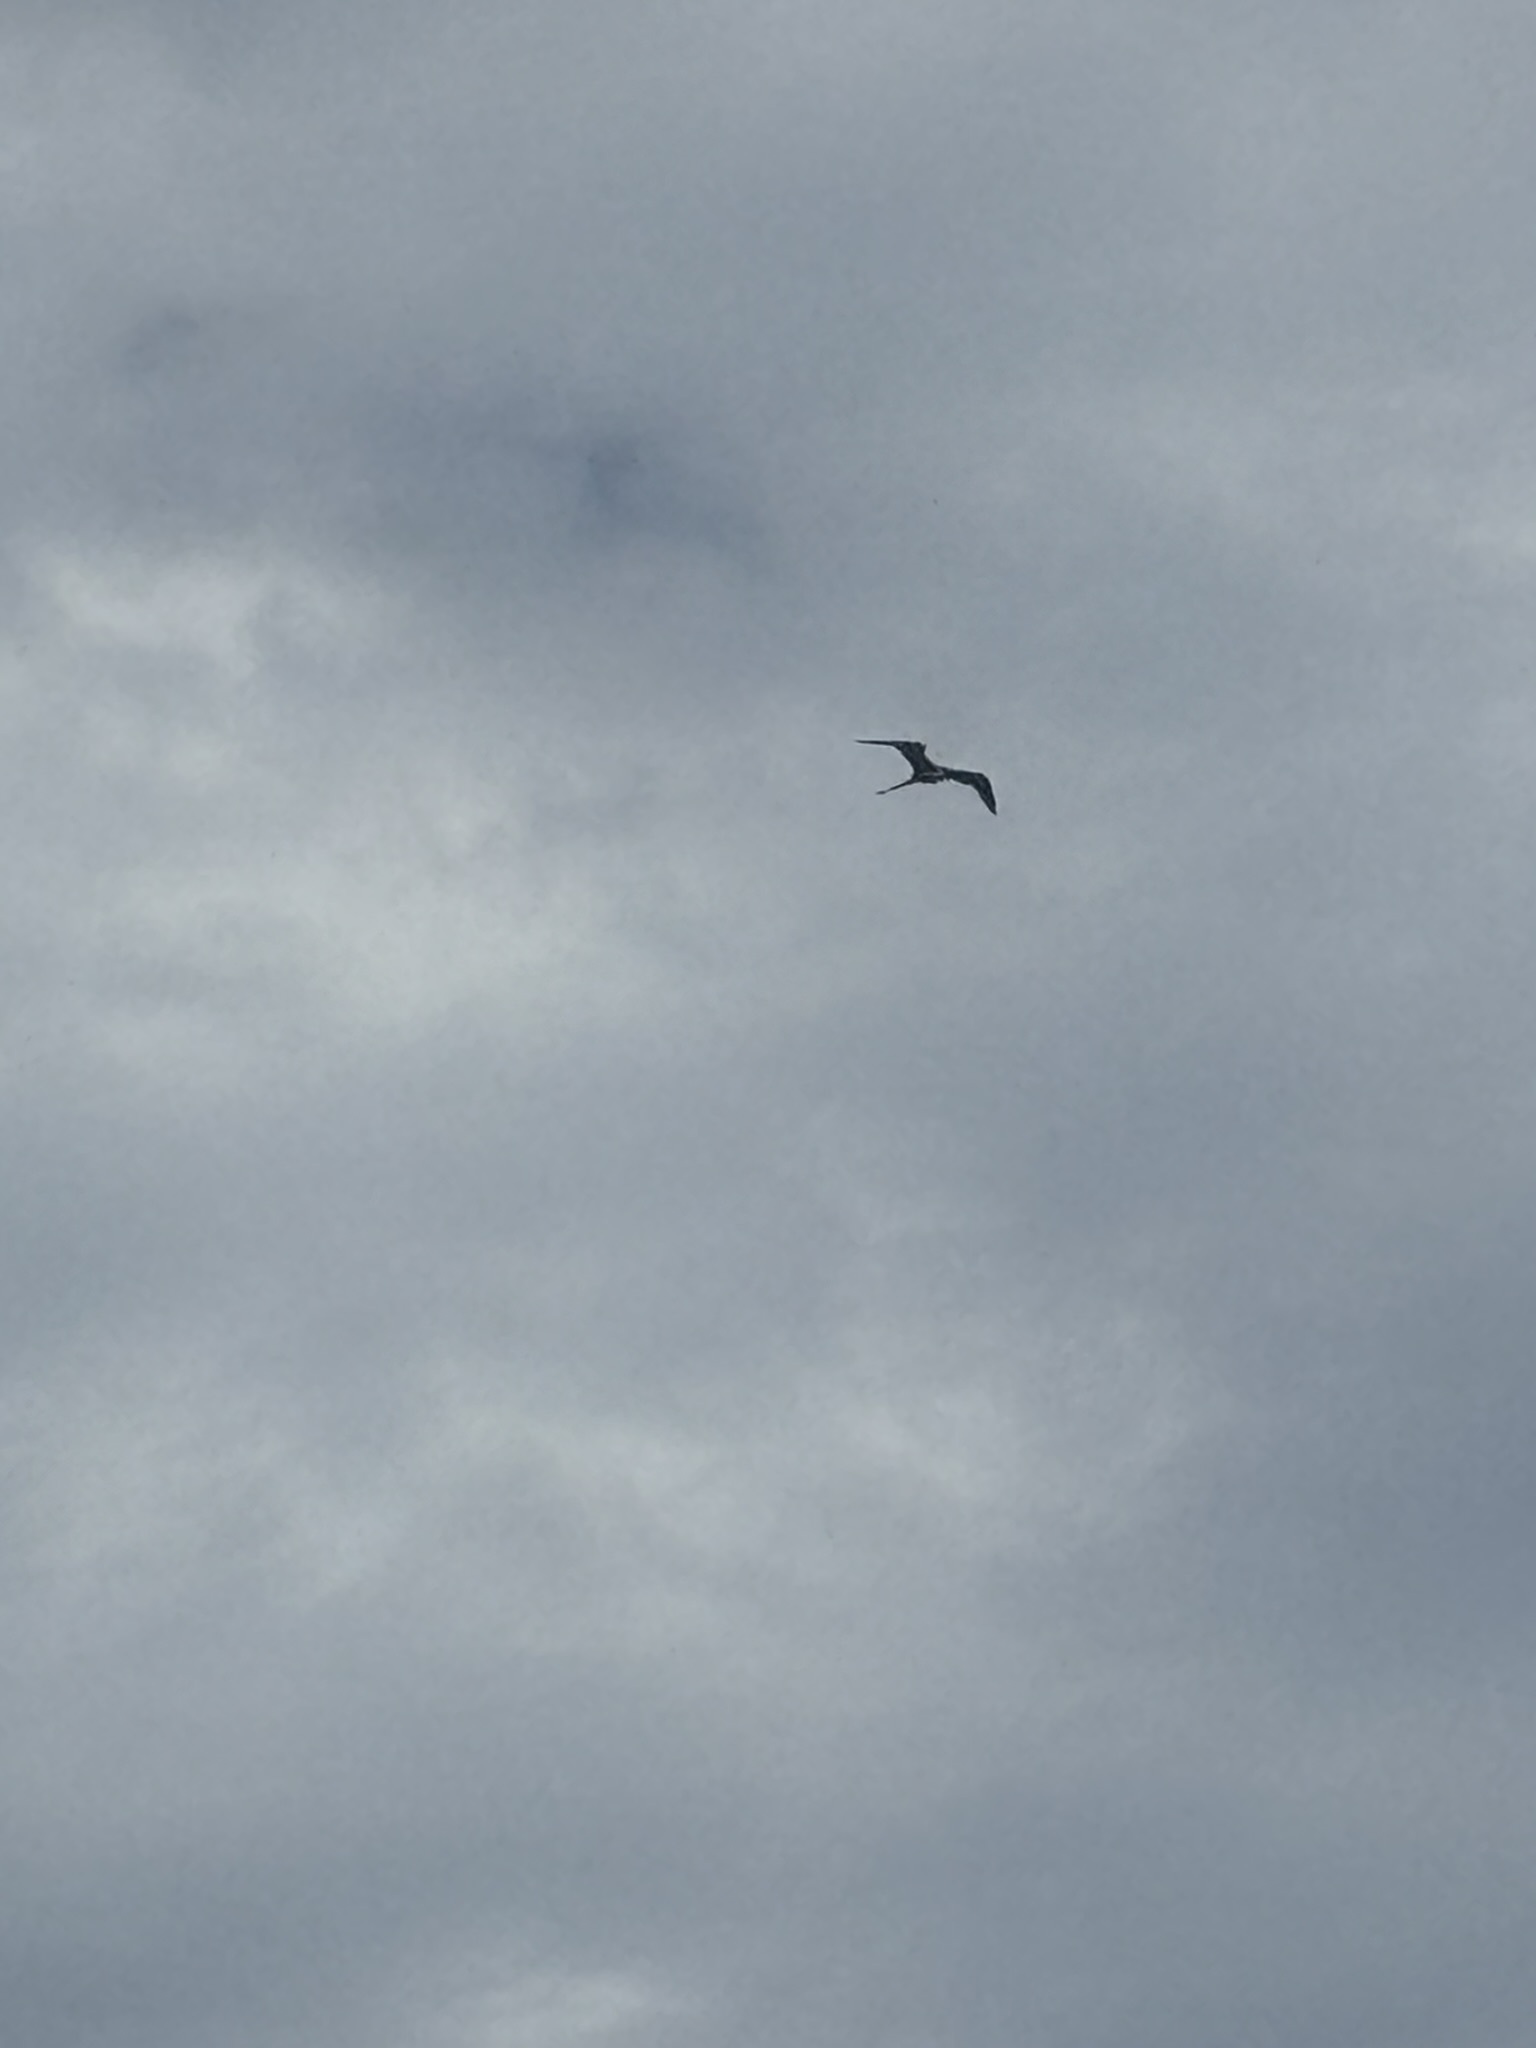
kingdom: Animalia
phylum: Chordata
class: Aves
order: Suliformes
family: Fregatidae
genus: Fregata
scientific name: Fregata magnificens
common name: Magnificent frigatebird
